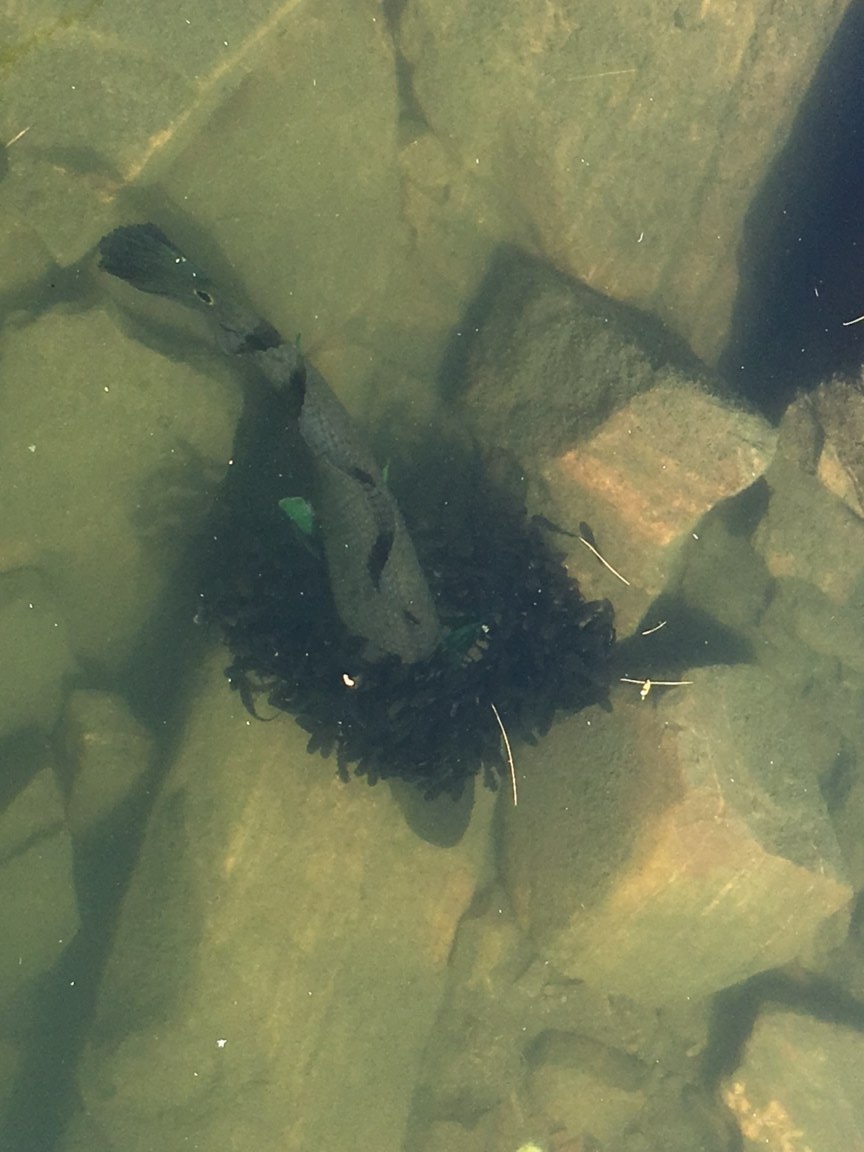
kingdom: Animalia
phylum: Chordata
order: Amiiformes
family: Amiidae
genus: Amia
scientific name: Amia calva
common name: Bowfin
